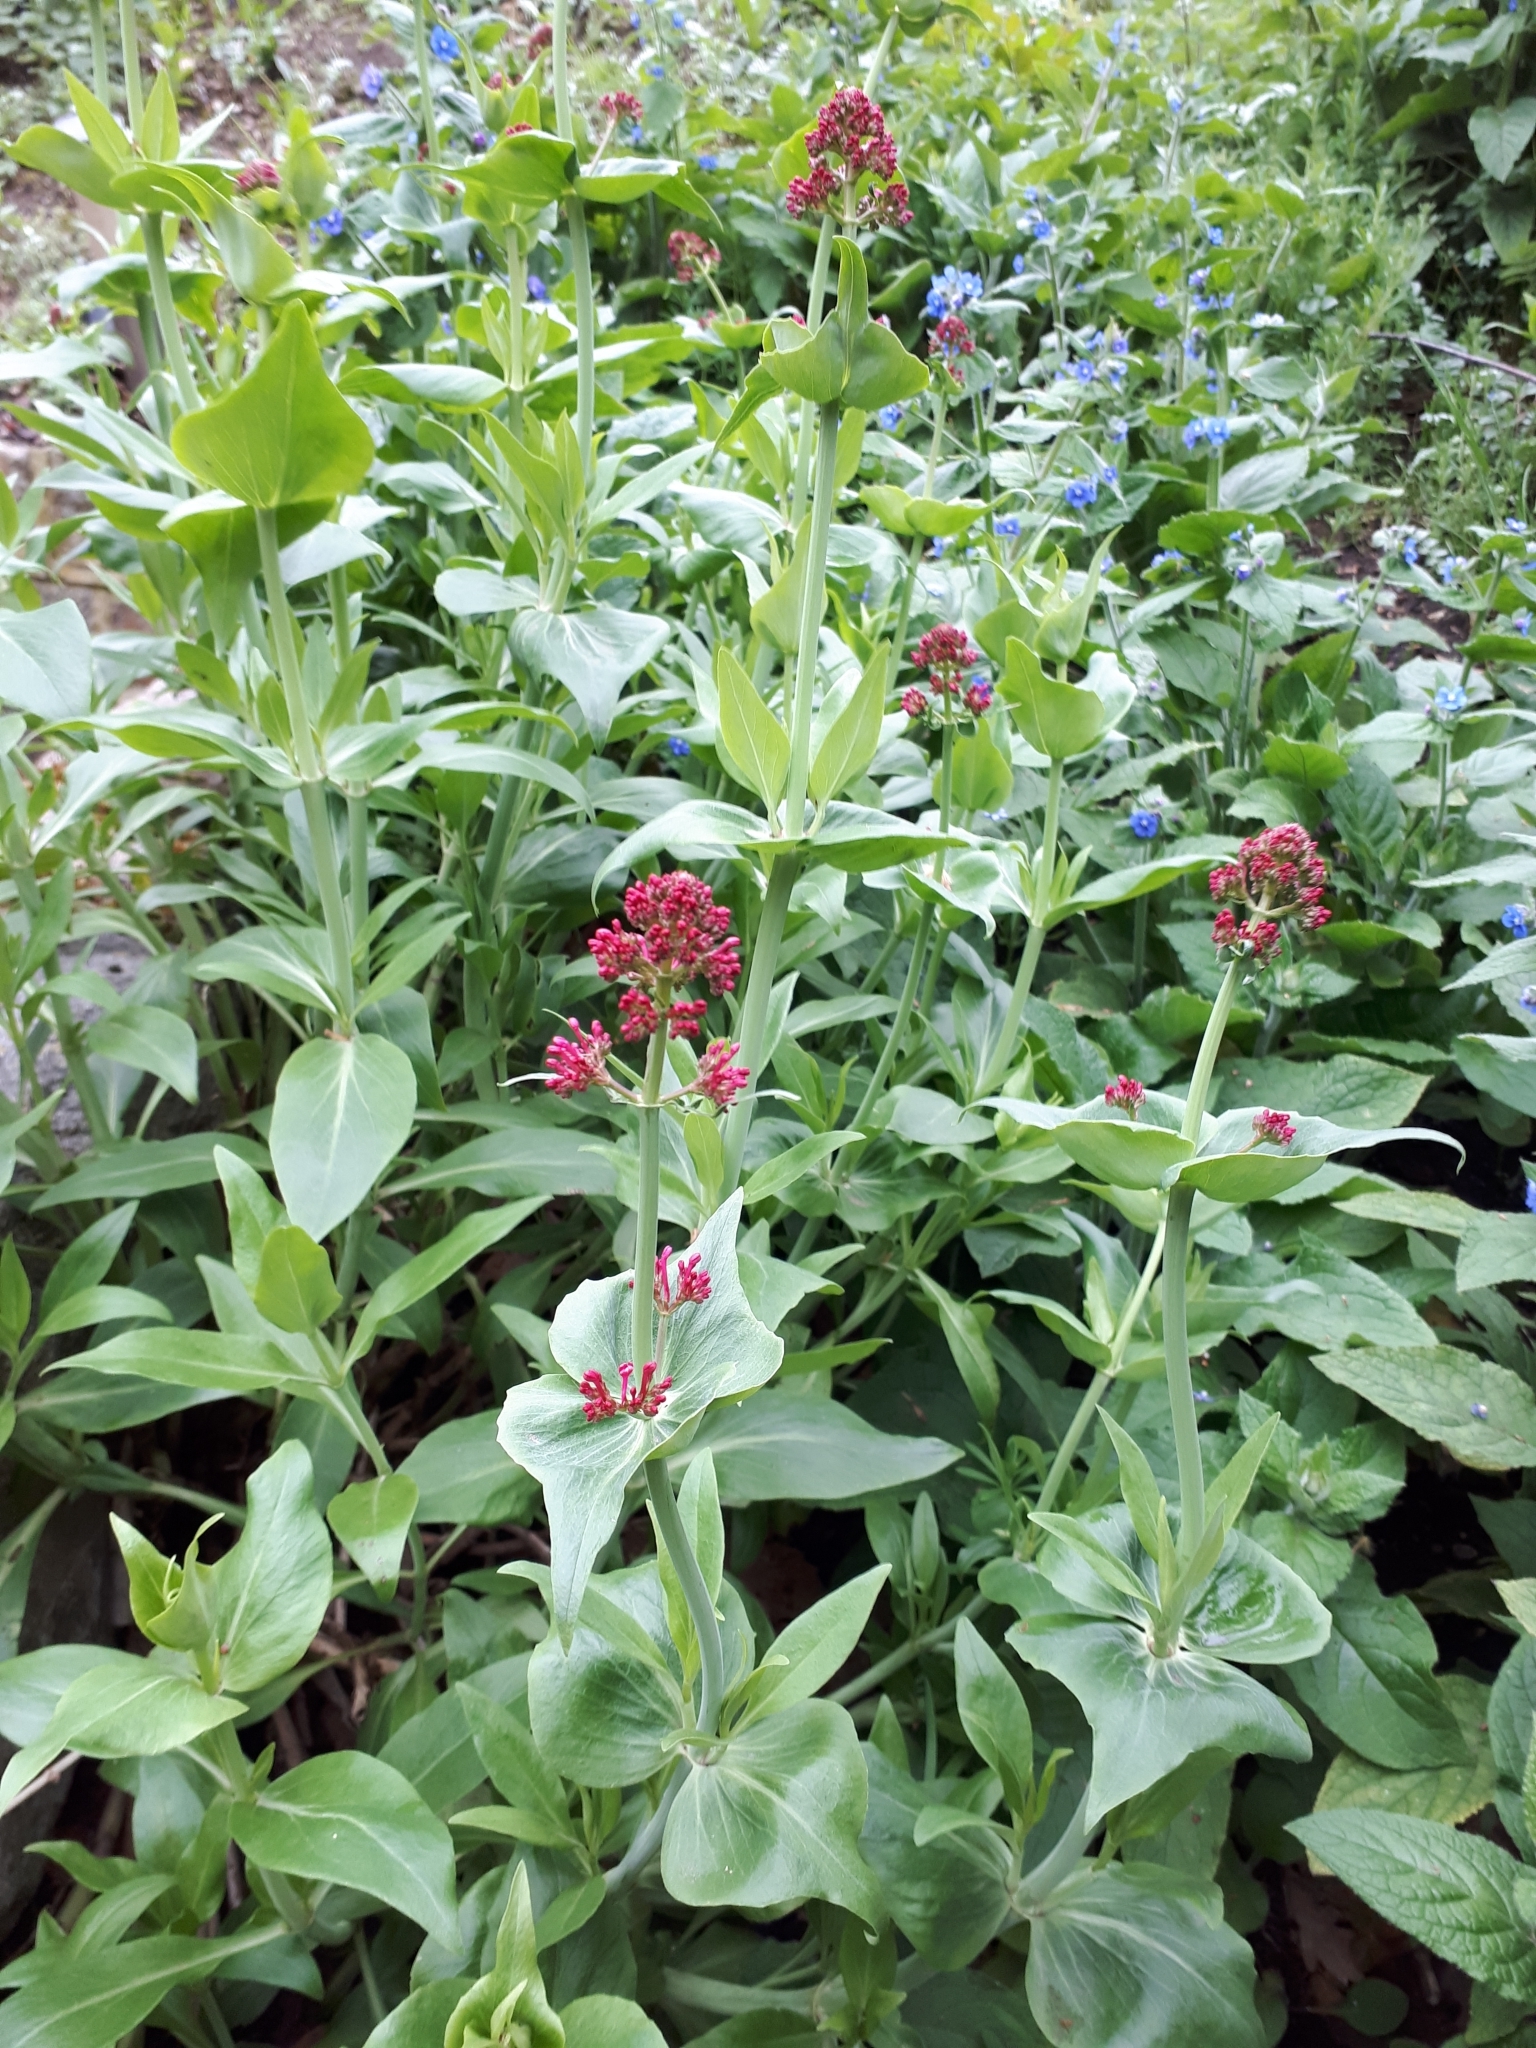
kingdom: Plantae
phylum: Tracheophyta
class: Magnoliopsida
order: Dipsacales
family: Caprifoliaceae
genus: Centranthus
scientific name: Centranthus ruber
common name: Red valerian
